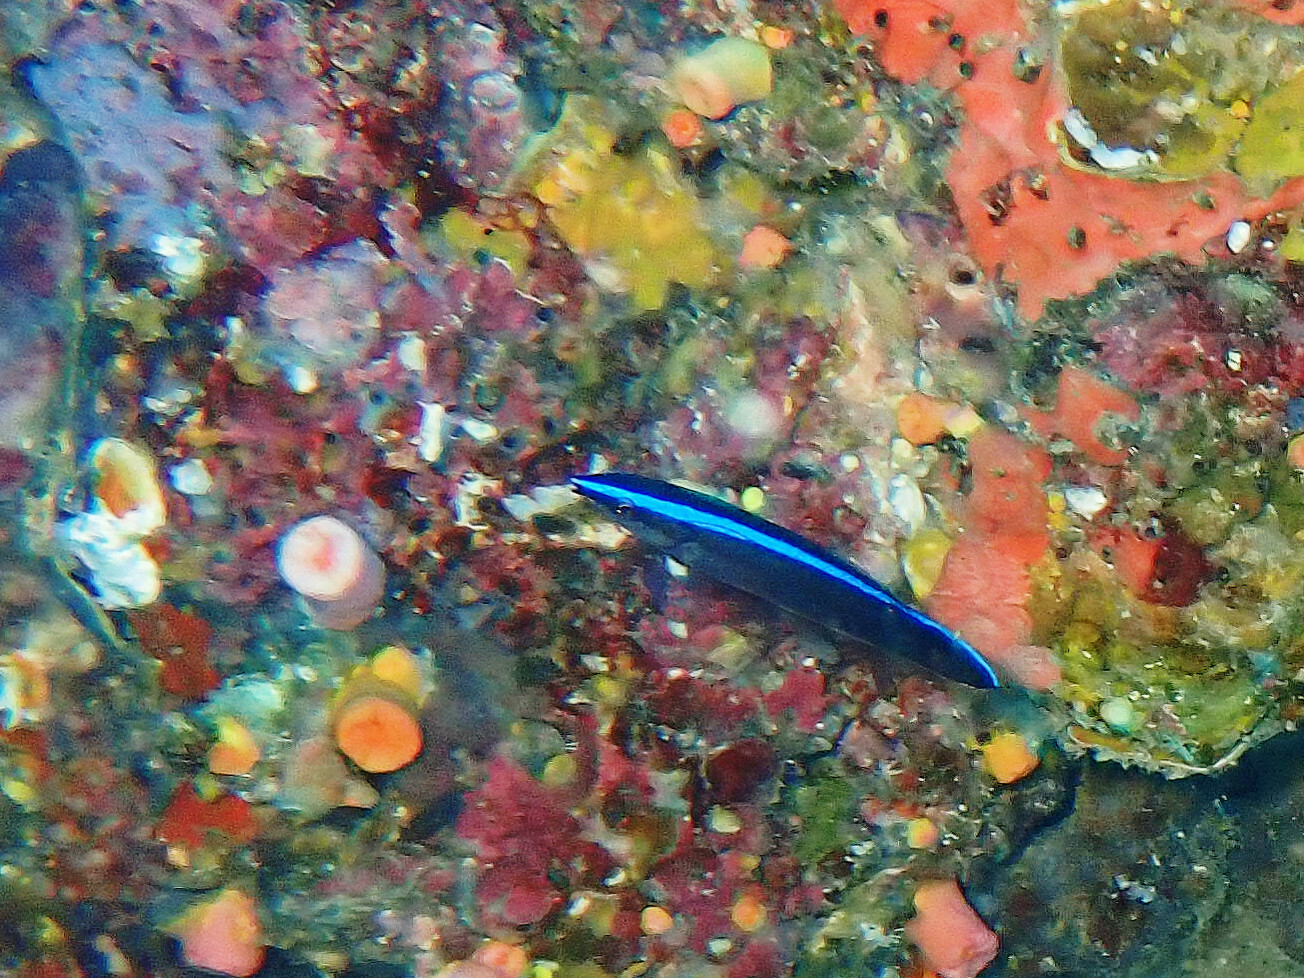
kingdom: Animalia
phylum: Chordata
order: Perciformes
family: Labridae
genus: Labroides
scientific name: Labroides dimidiatus
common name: Blue diesel wrasse
